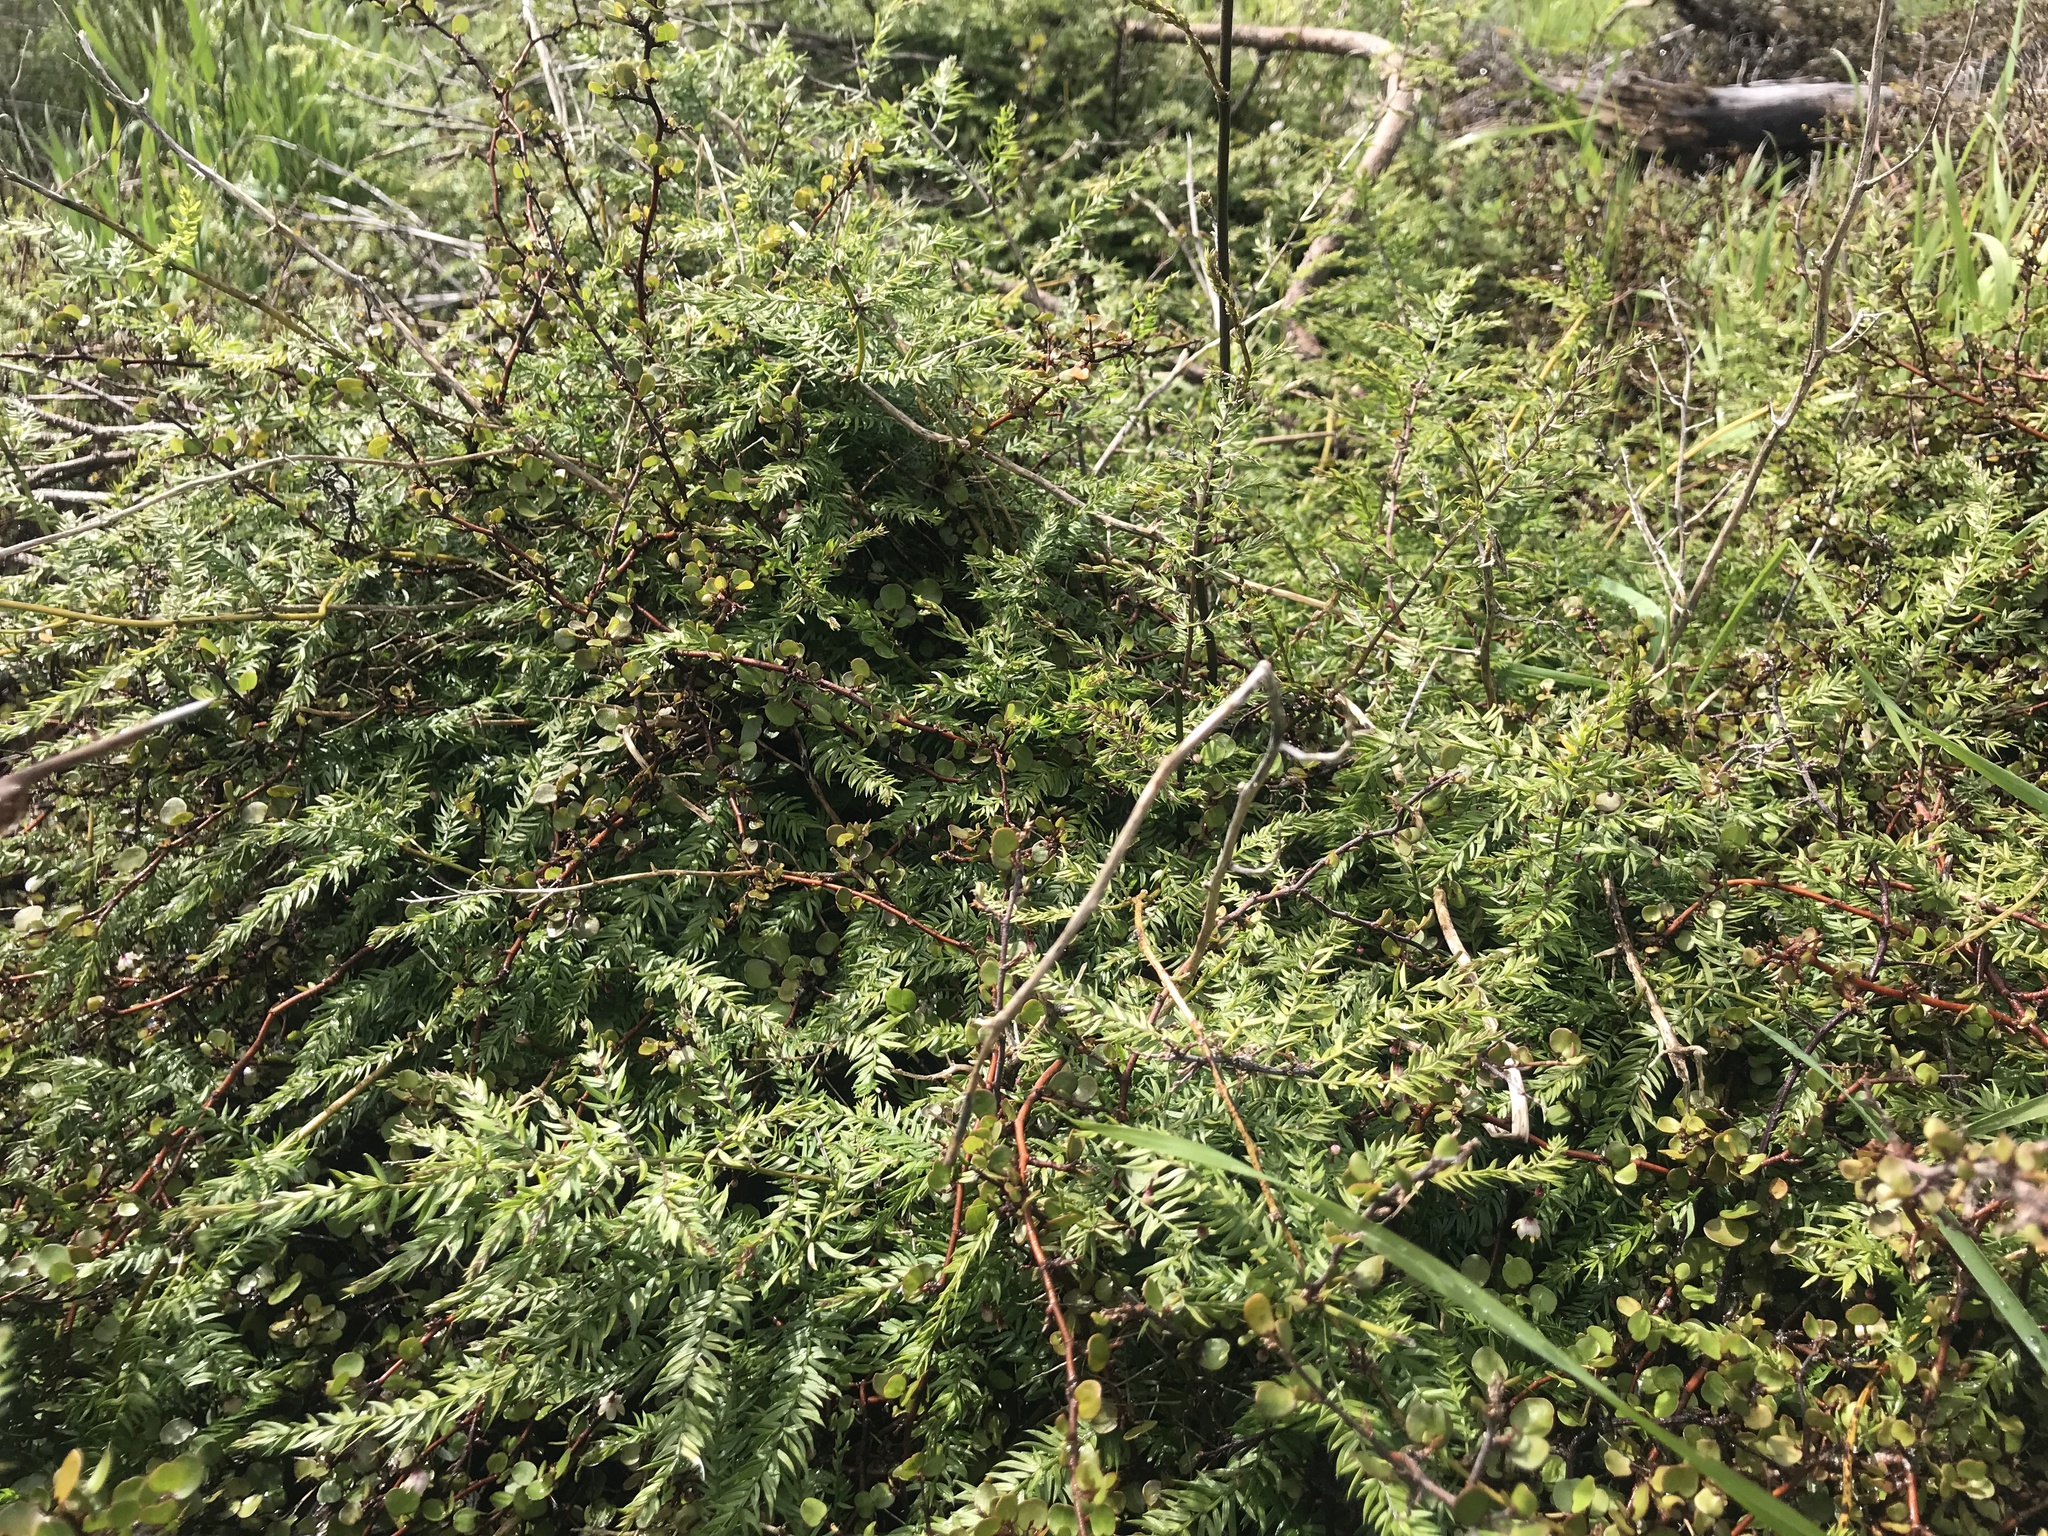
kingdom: Plantae
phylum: Tracheophyta
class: Liliopsida
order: Asparagales
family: Asparagaceae
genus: Asparagus
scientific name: Asparagus scandens
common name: Asparagus-fern
